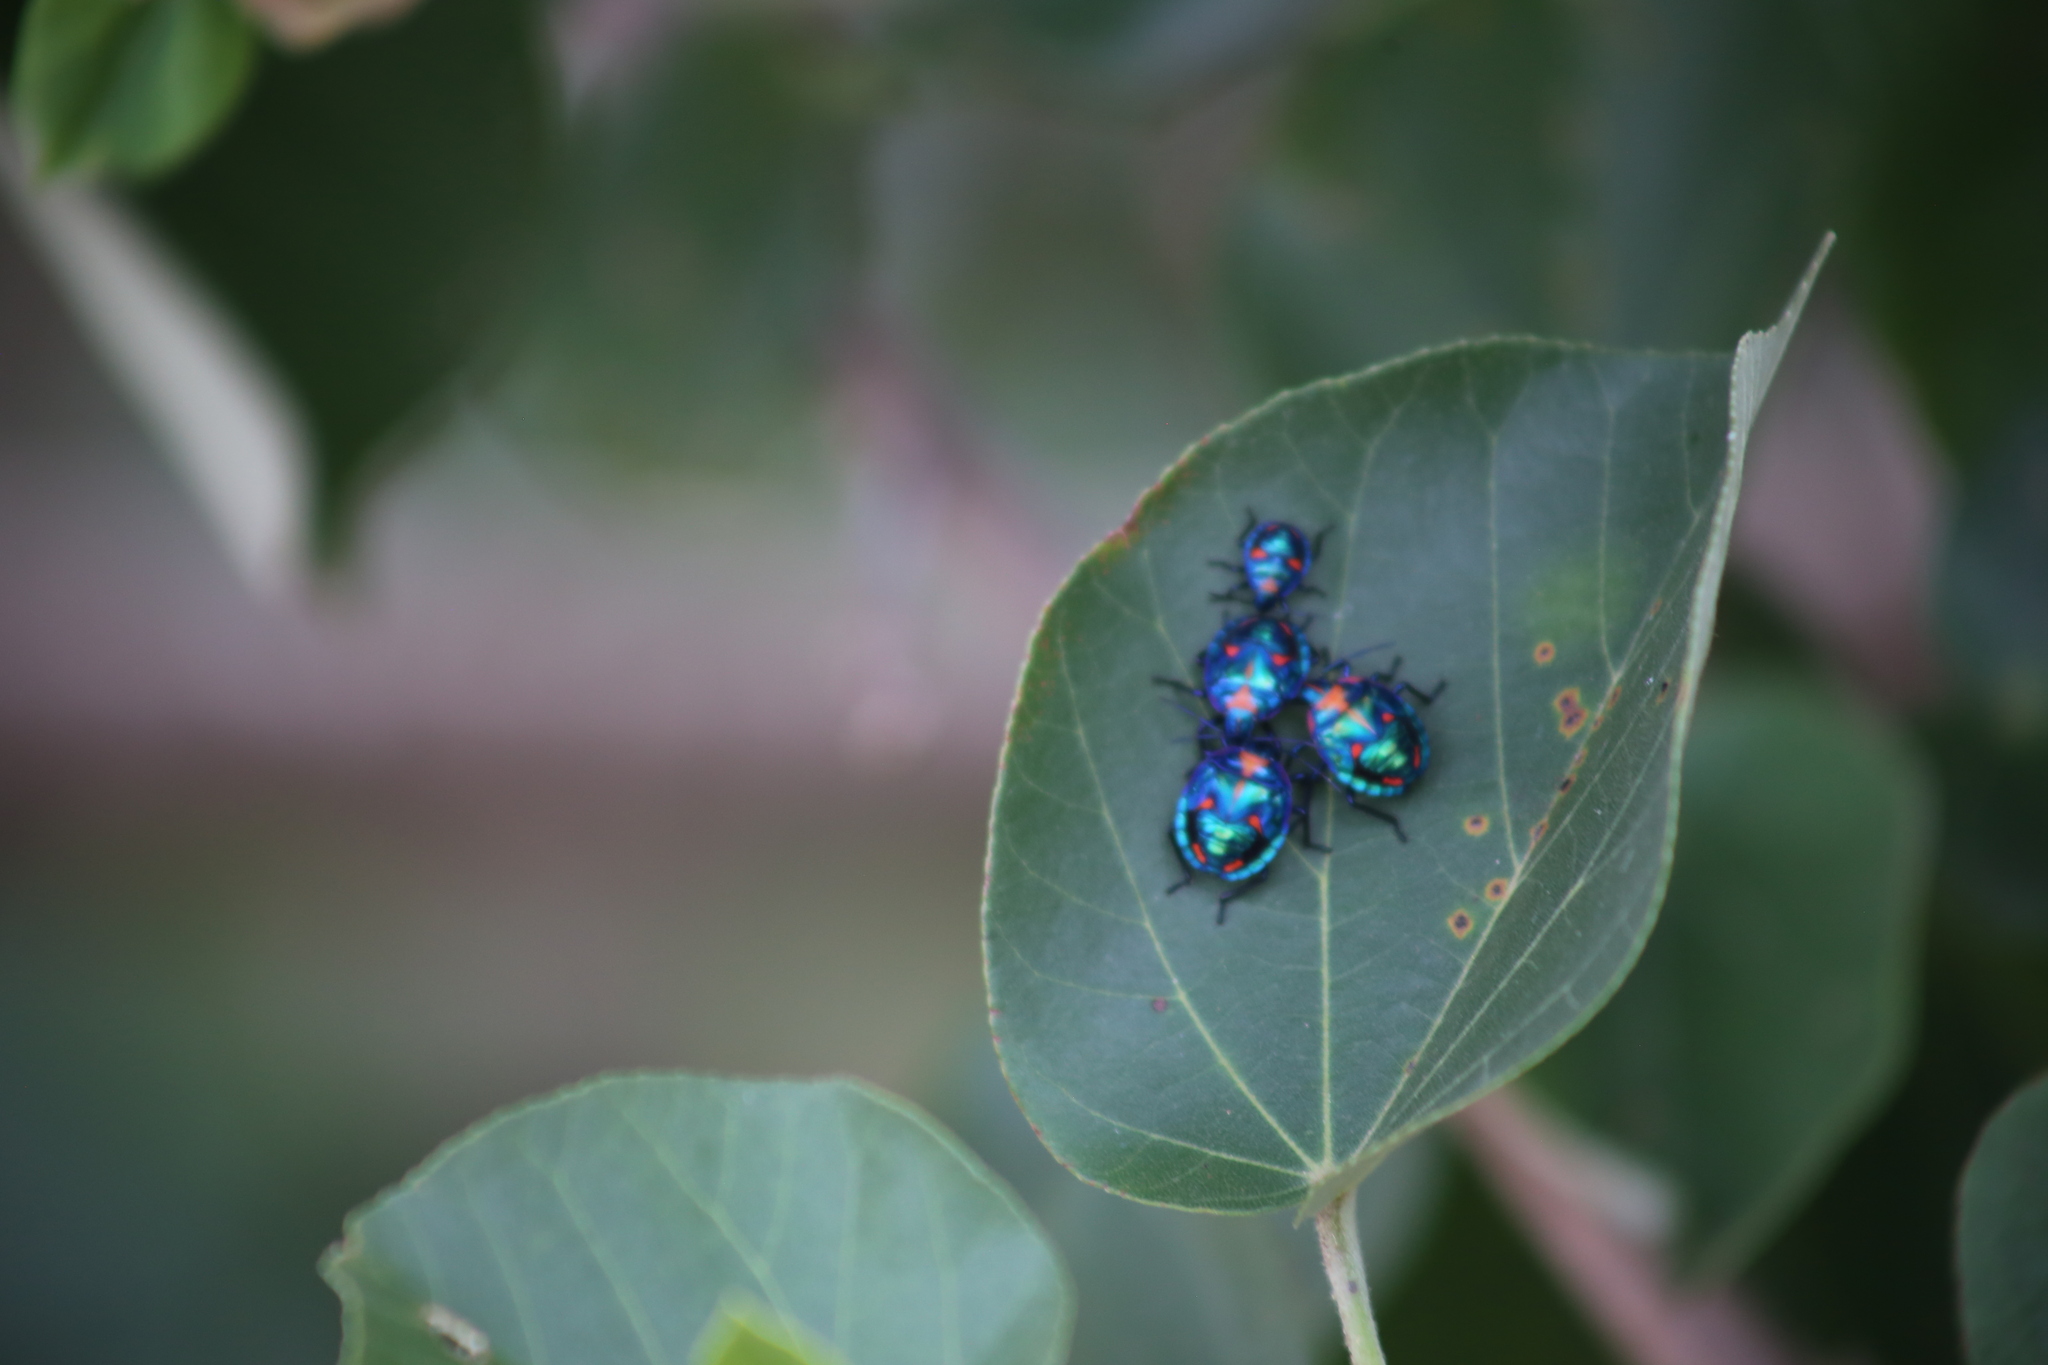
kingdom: Animalia
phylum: Arthropoda
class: Insecta
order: Hemiptera
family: Scutelleridae
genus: Tectocoris
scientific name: Tectocoris diophthalmus
